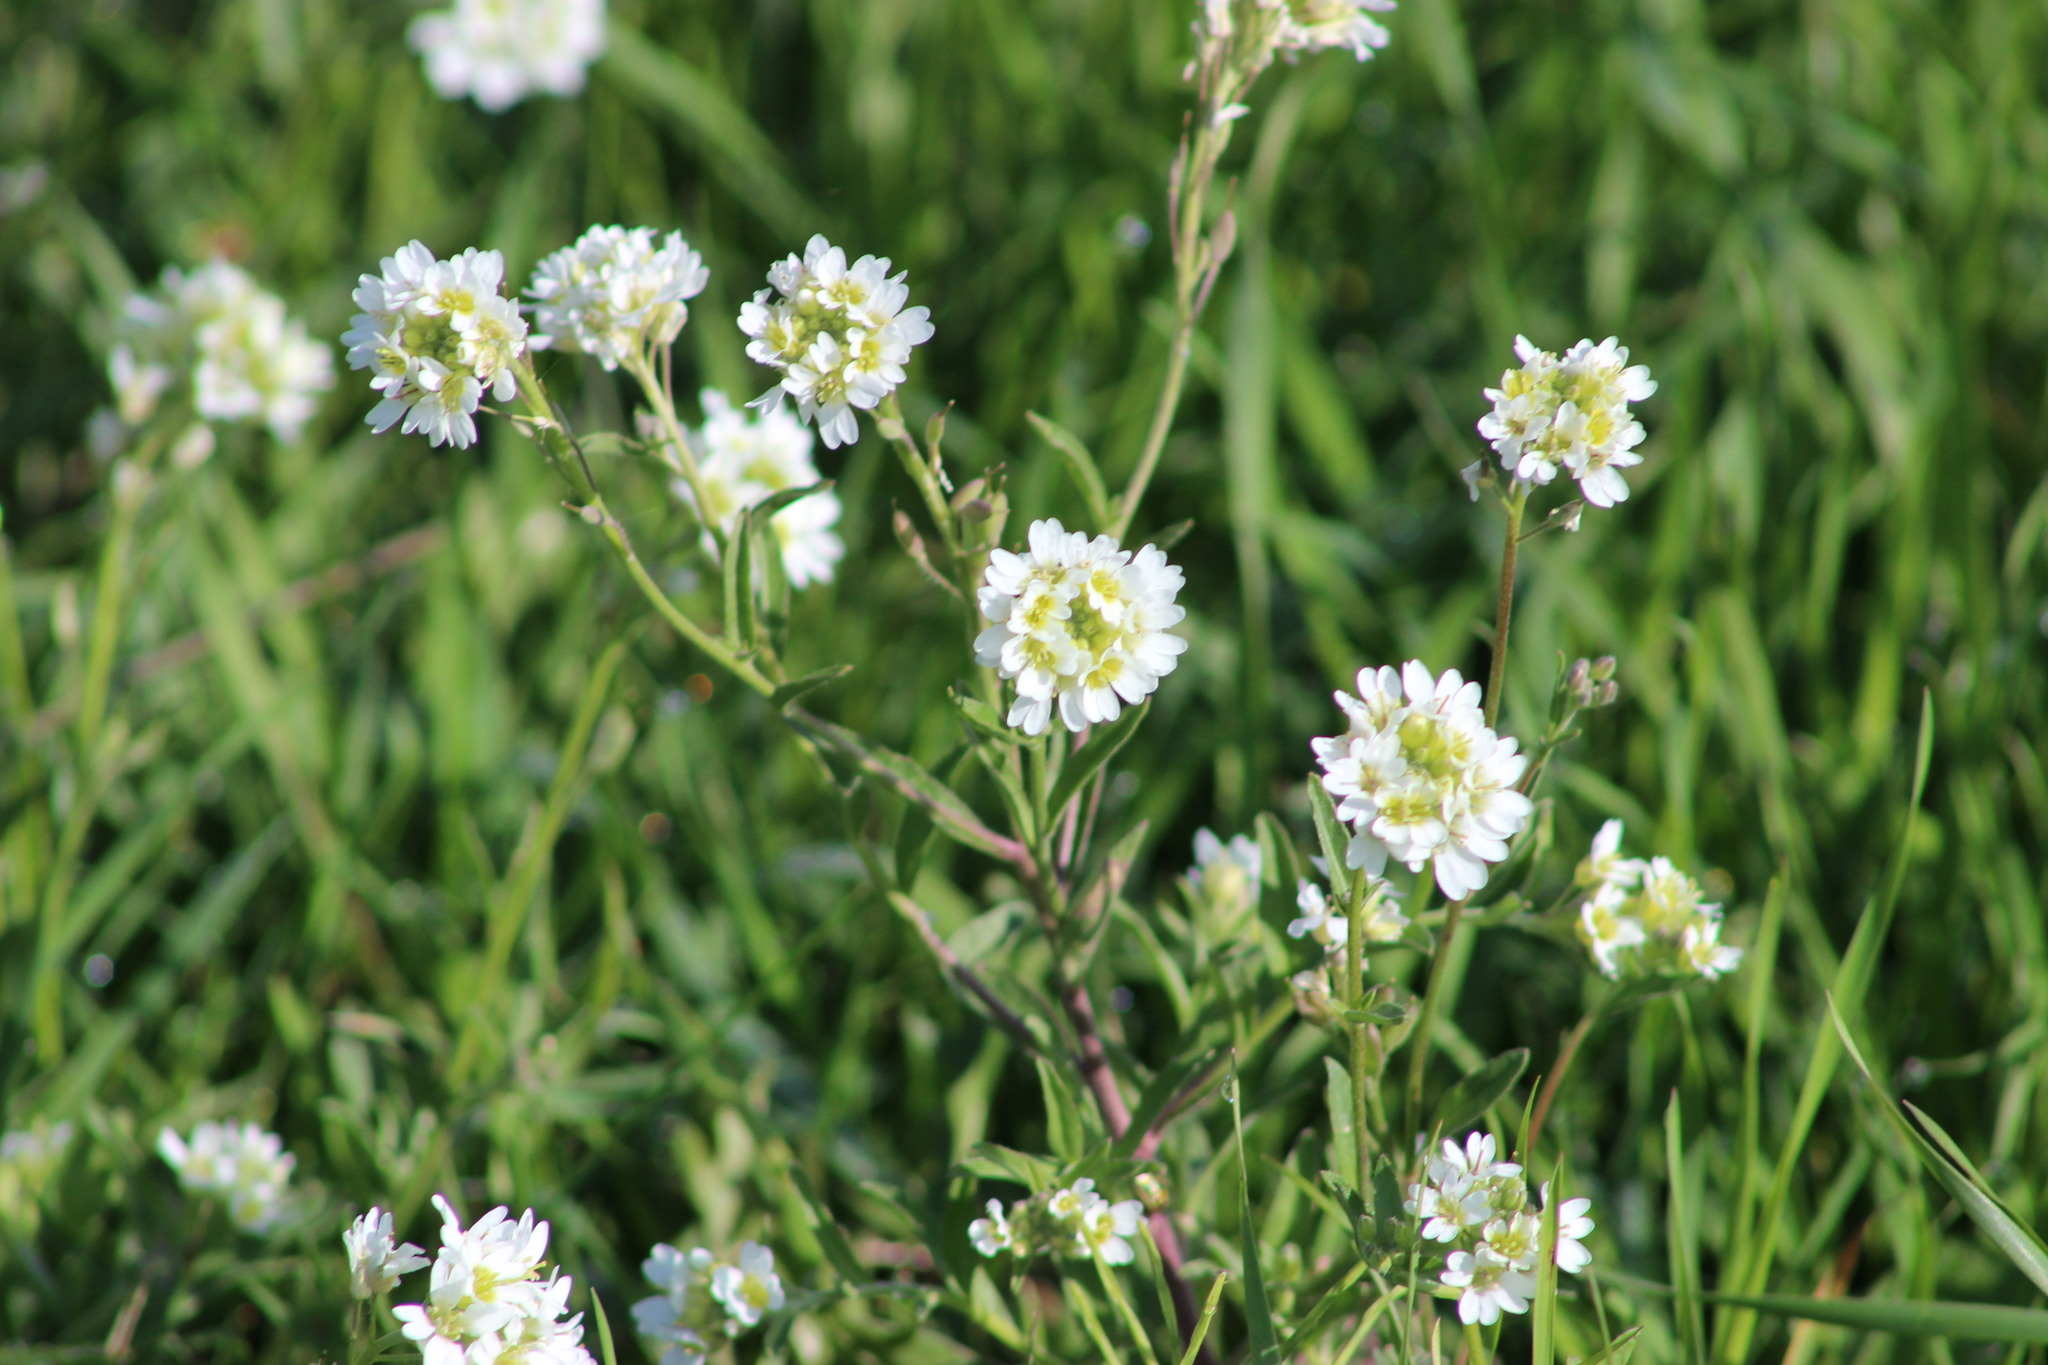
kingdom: Plantae
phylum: Tracheophyta
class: Magnoliopsida
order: Brassicales
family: Brassicaceae
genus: Berteroa
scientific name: Berteroa incana
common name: Hoary alison
